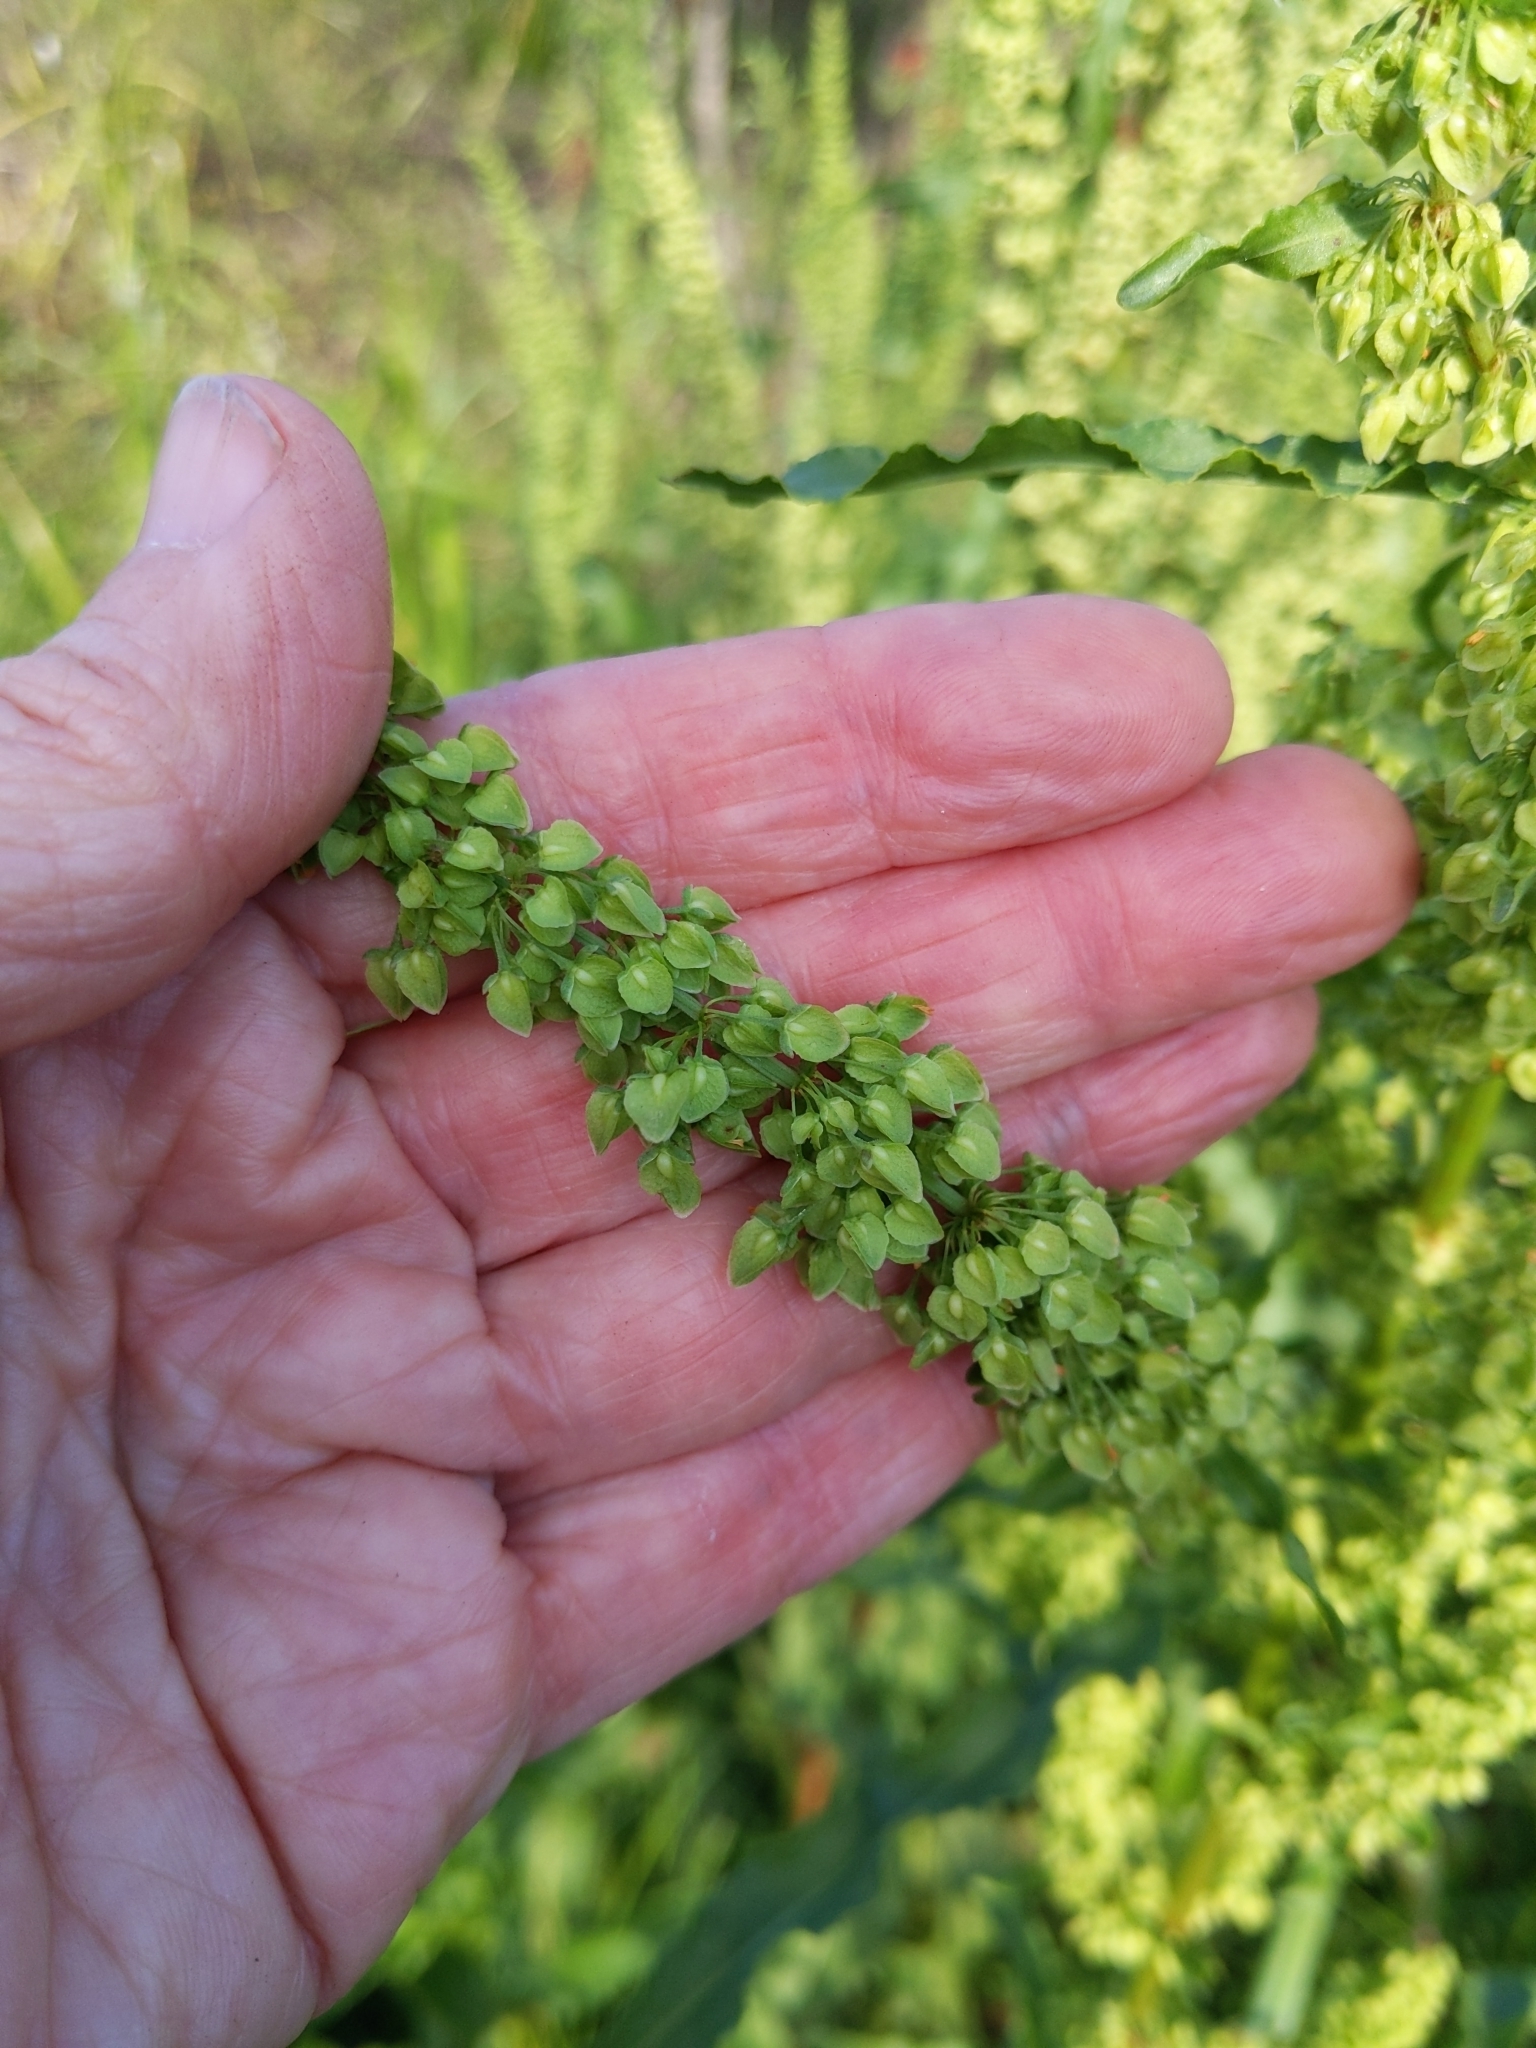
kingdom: Plantae
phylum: Tracheophyta
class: Magnoliopsida
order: Caryophyllales
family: Polygonaceae
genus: Rumex
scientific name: Rumex crispus
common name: Curled dock
